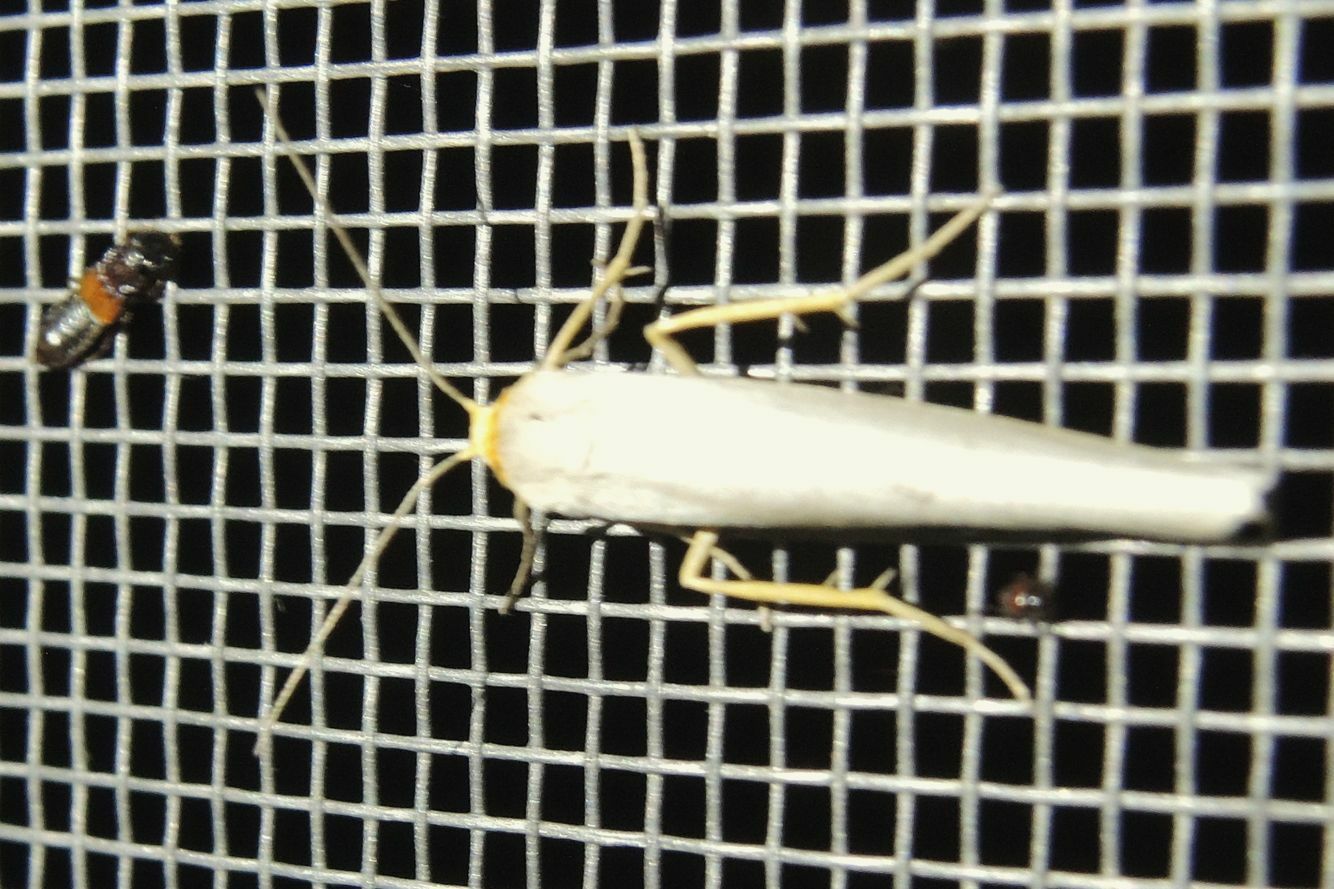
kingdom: Animalia
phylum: Arthropoda
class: Insecta
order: Lepidoptera
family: Erebidae
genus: Eilema
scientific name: Eilema caniola
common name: Hoary footman
